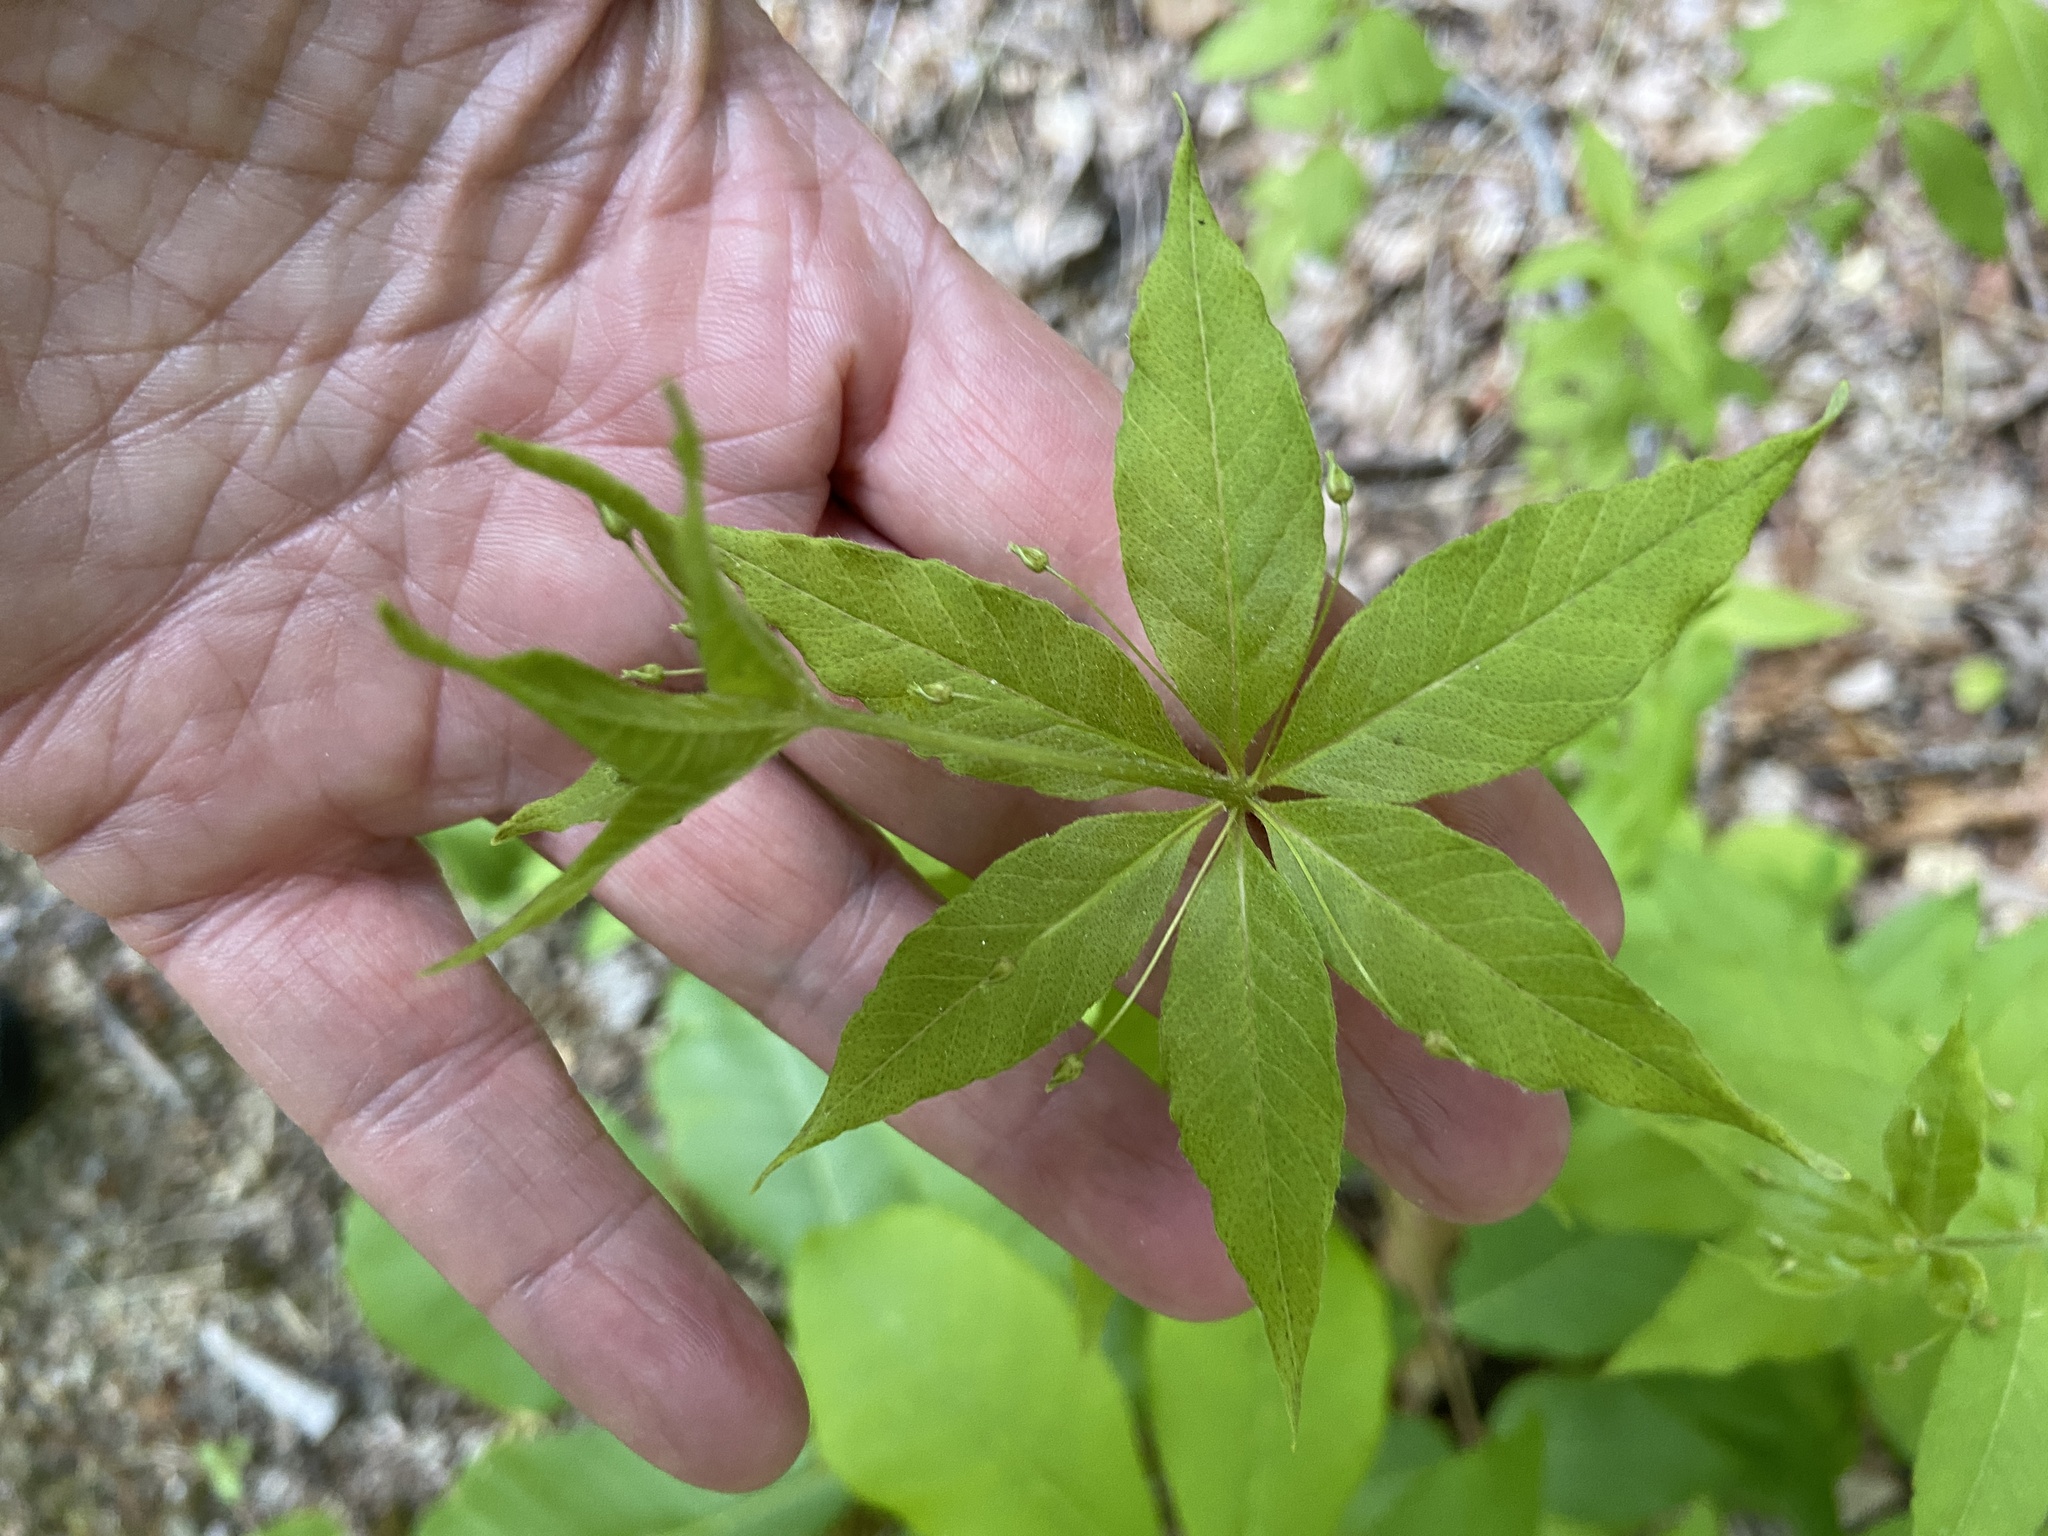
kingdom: Plantae
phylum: Tracheophyta
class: Magnoliopsida
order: Ericales
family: Primulaceae
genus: Lysimachia
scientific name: Lysimachia quadrifolia
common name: Whorled loosestrife
